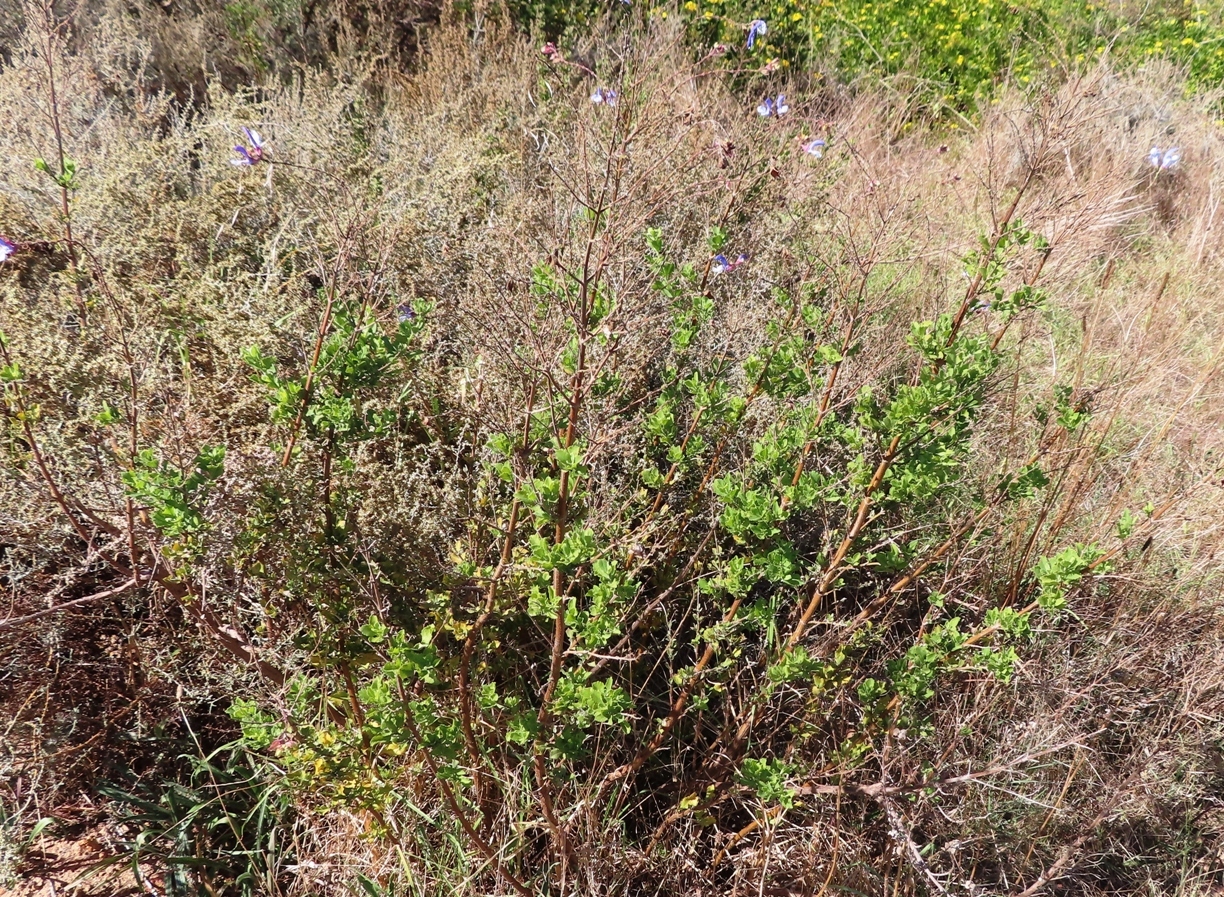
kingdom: Plantae
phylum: Tracheophyta
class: Magnoliopsida
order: Lamiales
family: Lamiaceae
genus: Salvia
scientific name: Salvia chamelaeagnea
